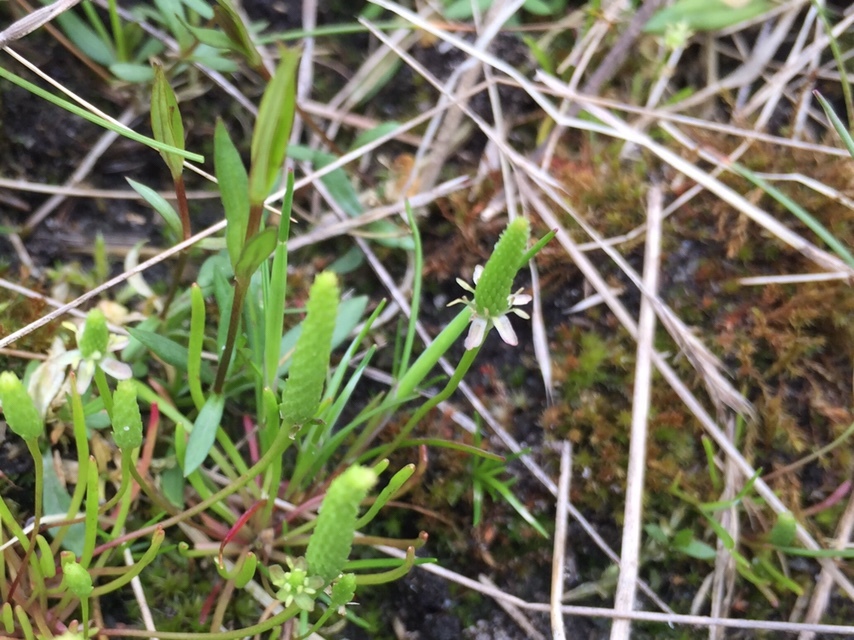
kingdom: Plantae
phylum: Tracheophyta
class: Magnoliopsida
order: Ranunculales
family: Ranunculaceae
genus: Myosurus
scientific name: Myosurus minimus
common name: Mousetail
